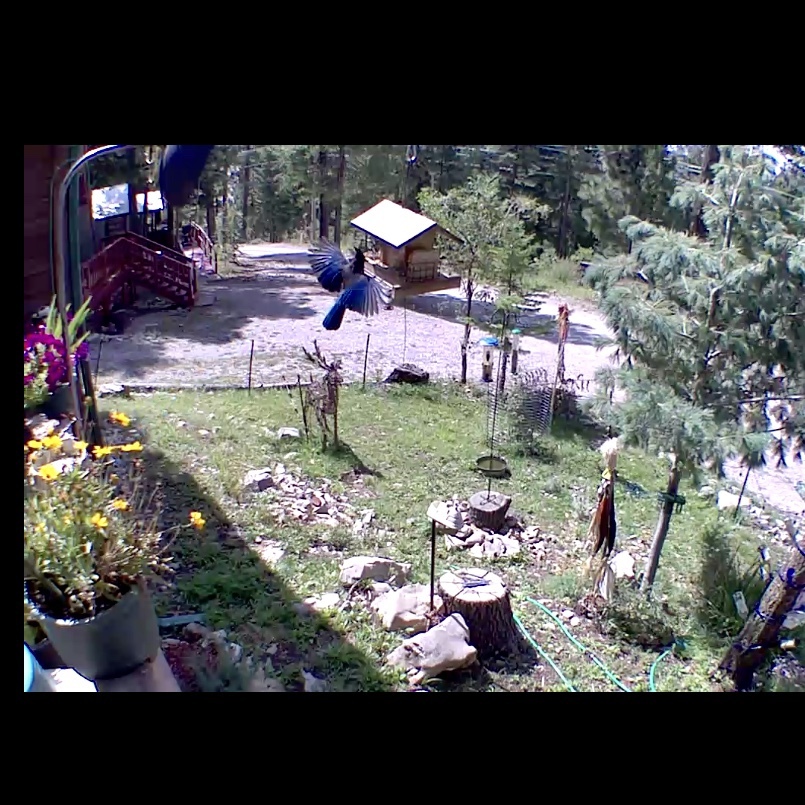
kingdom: Animalia
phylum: Chordata
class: Aves
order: Passeriformes
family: Corvidae
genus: Cyanocitta
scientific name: Cyanocitta stelleri
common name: Steller's jay
